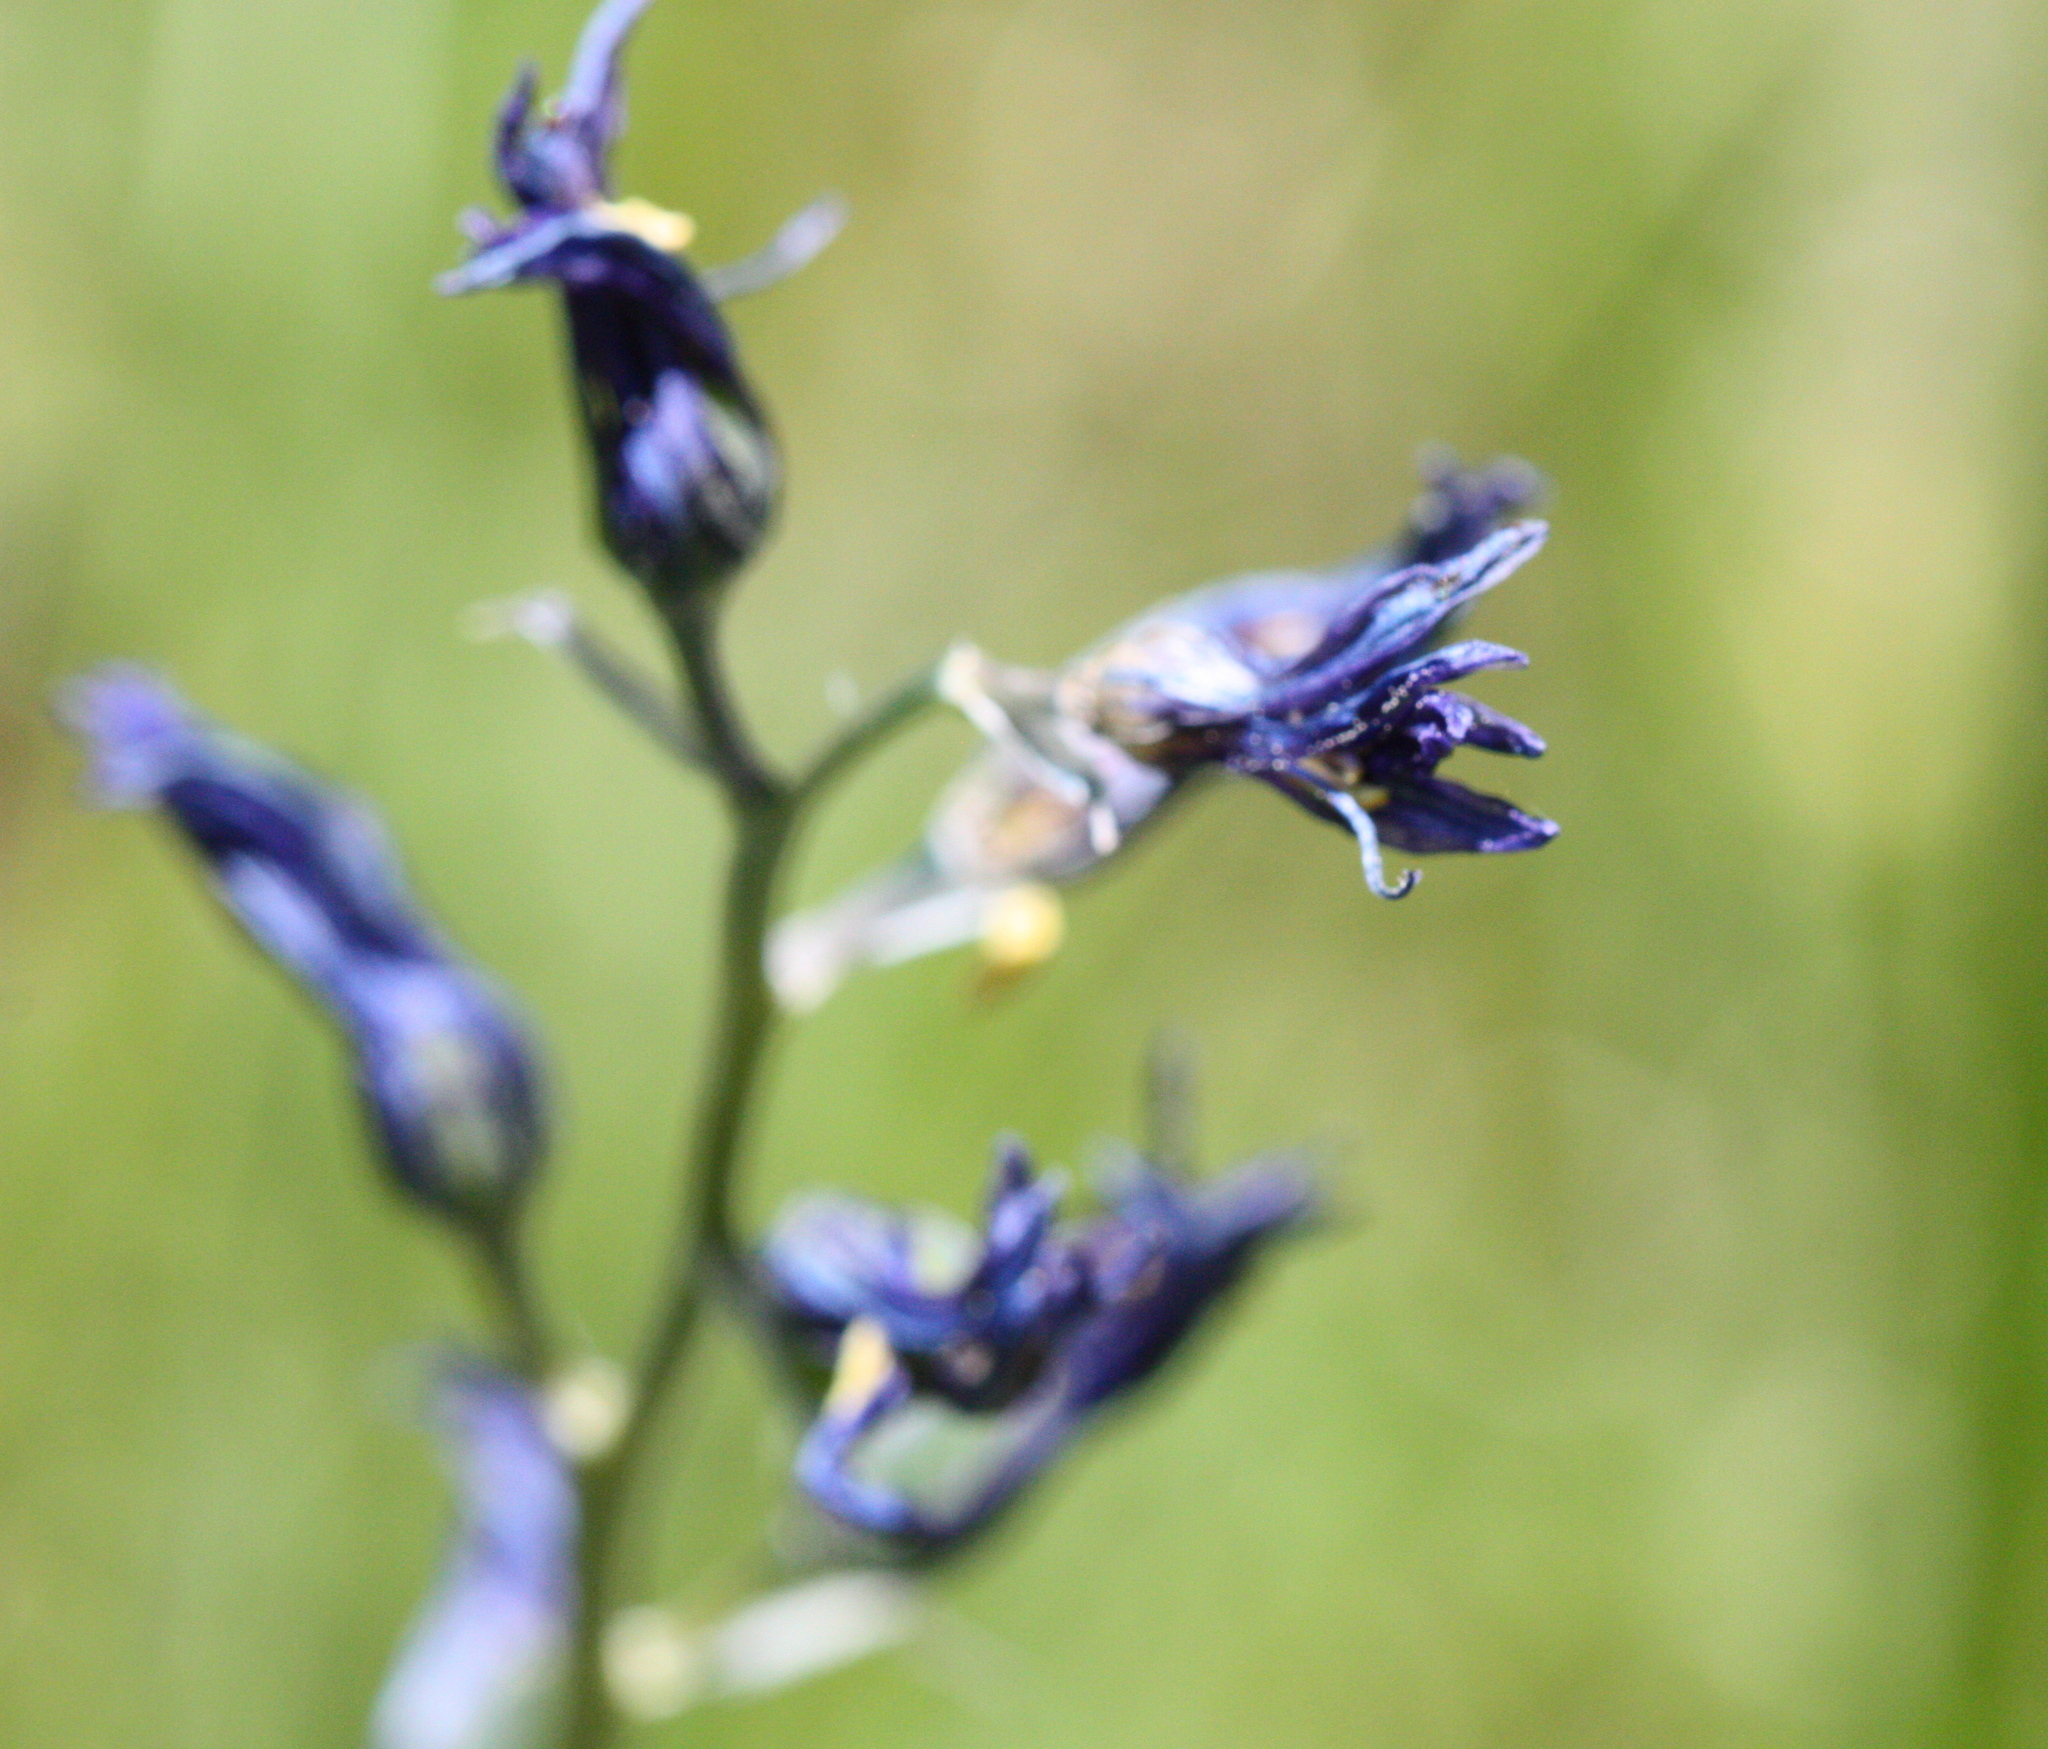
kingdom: Plantae
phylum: Tracheophyta
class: Liliopsida
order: Asparagales
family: Asparagaceae
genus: Camassia
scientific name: Camassia quamash
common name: Common camas
